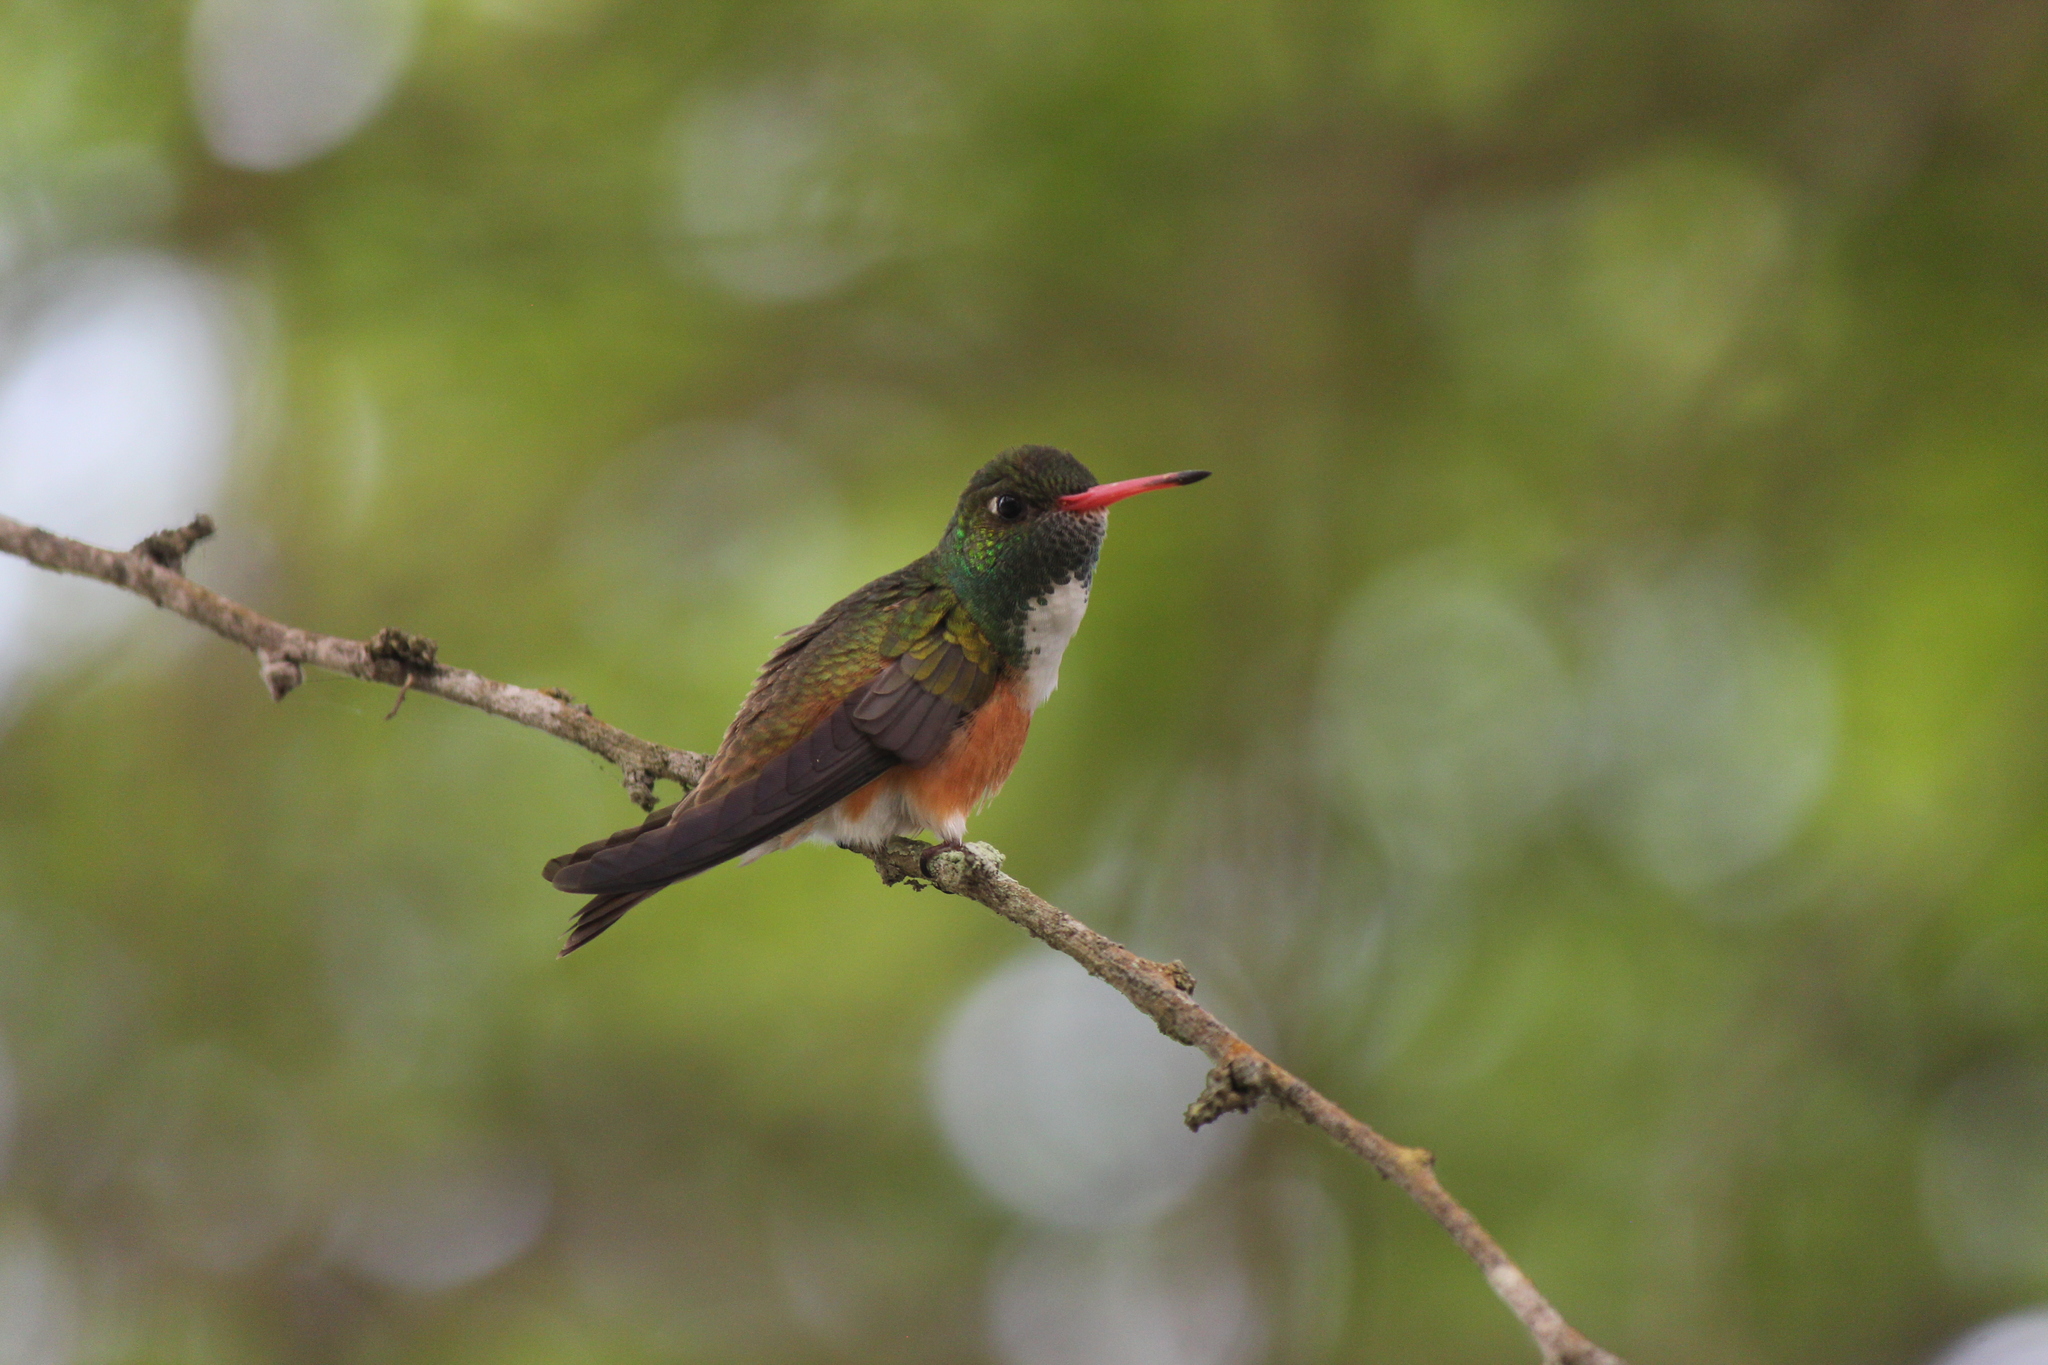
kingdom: Animalia
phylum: Chordata
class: Aves
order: Apodiformes
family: Trochilidae
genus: Amazilis
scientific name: Amazilis amazilia
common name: Amazilia hummingbird
